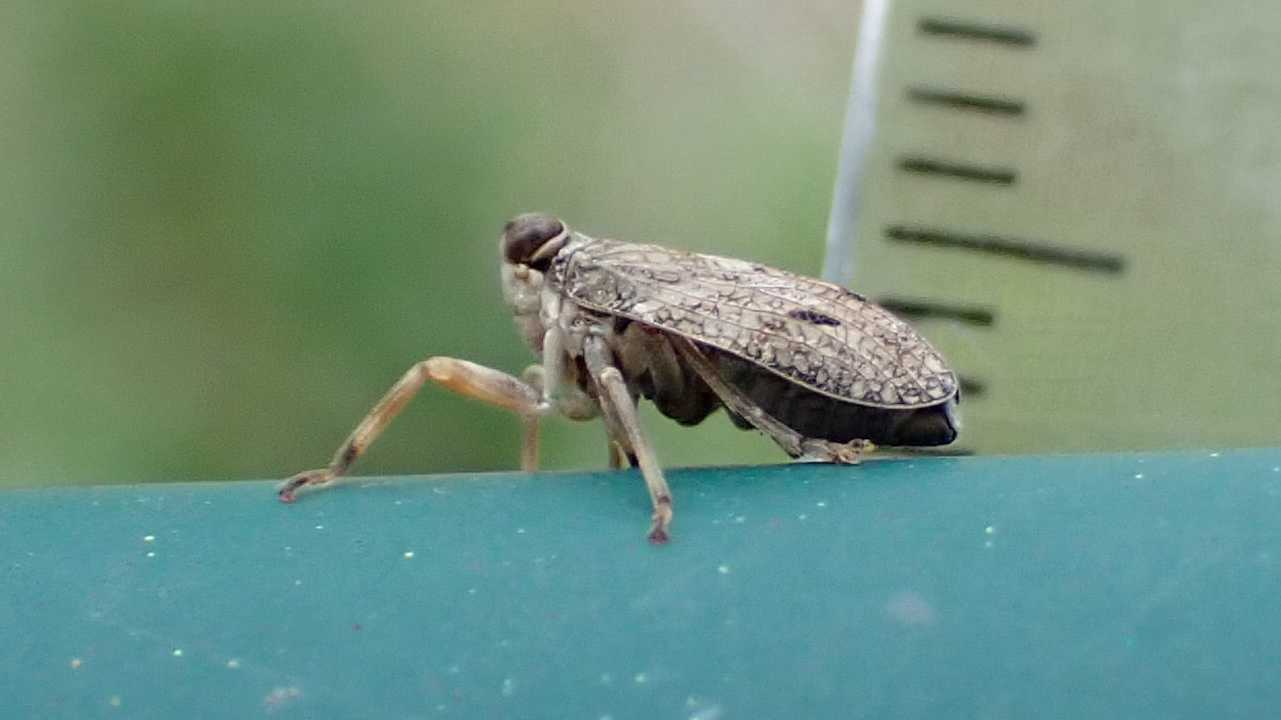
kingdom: Animalia
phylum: Arthropoda
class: Insecta
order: Hemiptera
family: Issidae
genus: Issus
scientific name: Issus coleoptratus
